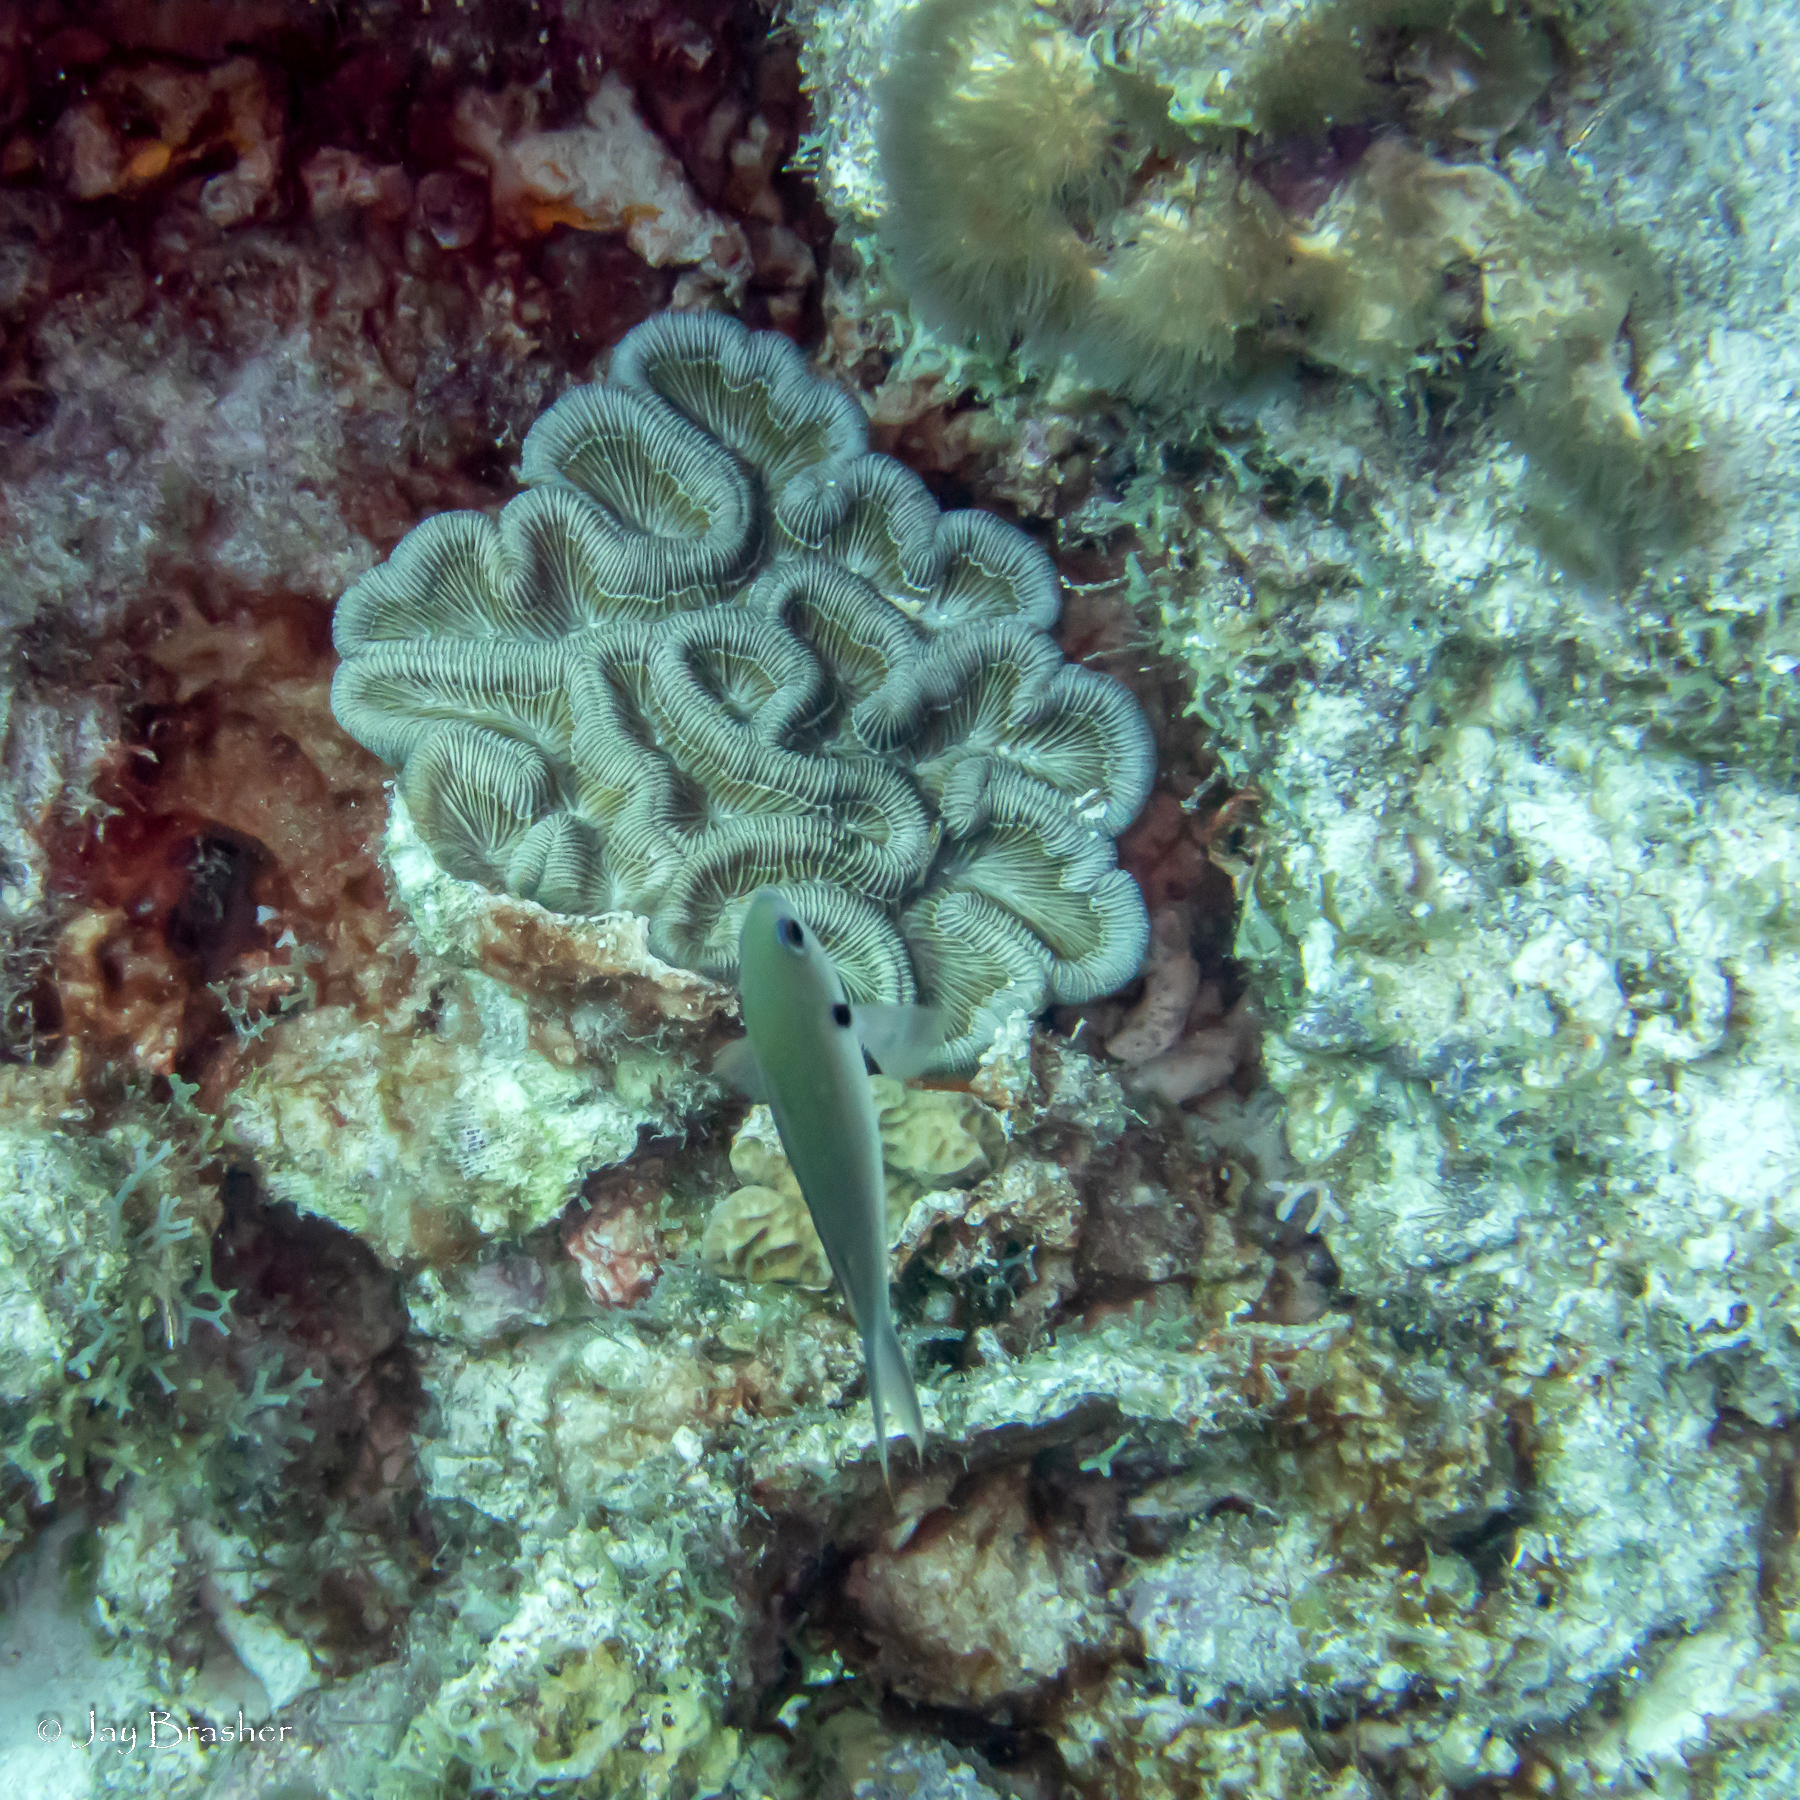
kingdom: Animalia
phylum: Cnidaria
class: Anthozoa
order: Scleractinia
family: Faviidae
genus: Colpophyllia
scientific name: Colpophyllia natans
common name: Boulder brain coral
